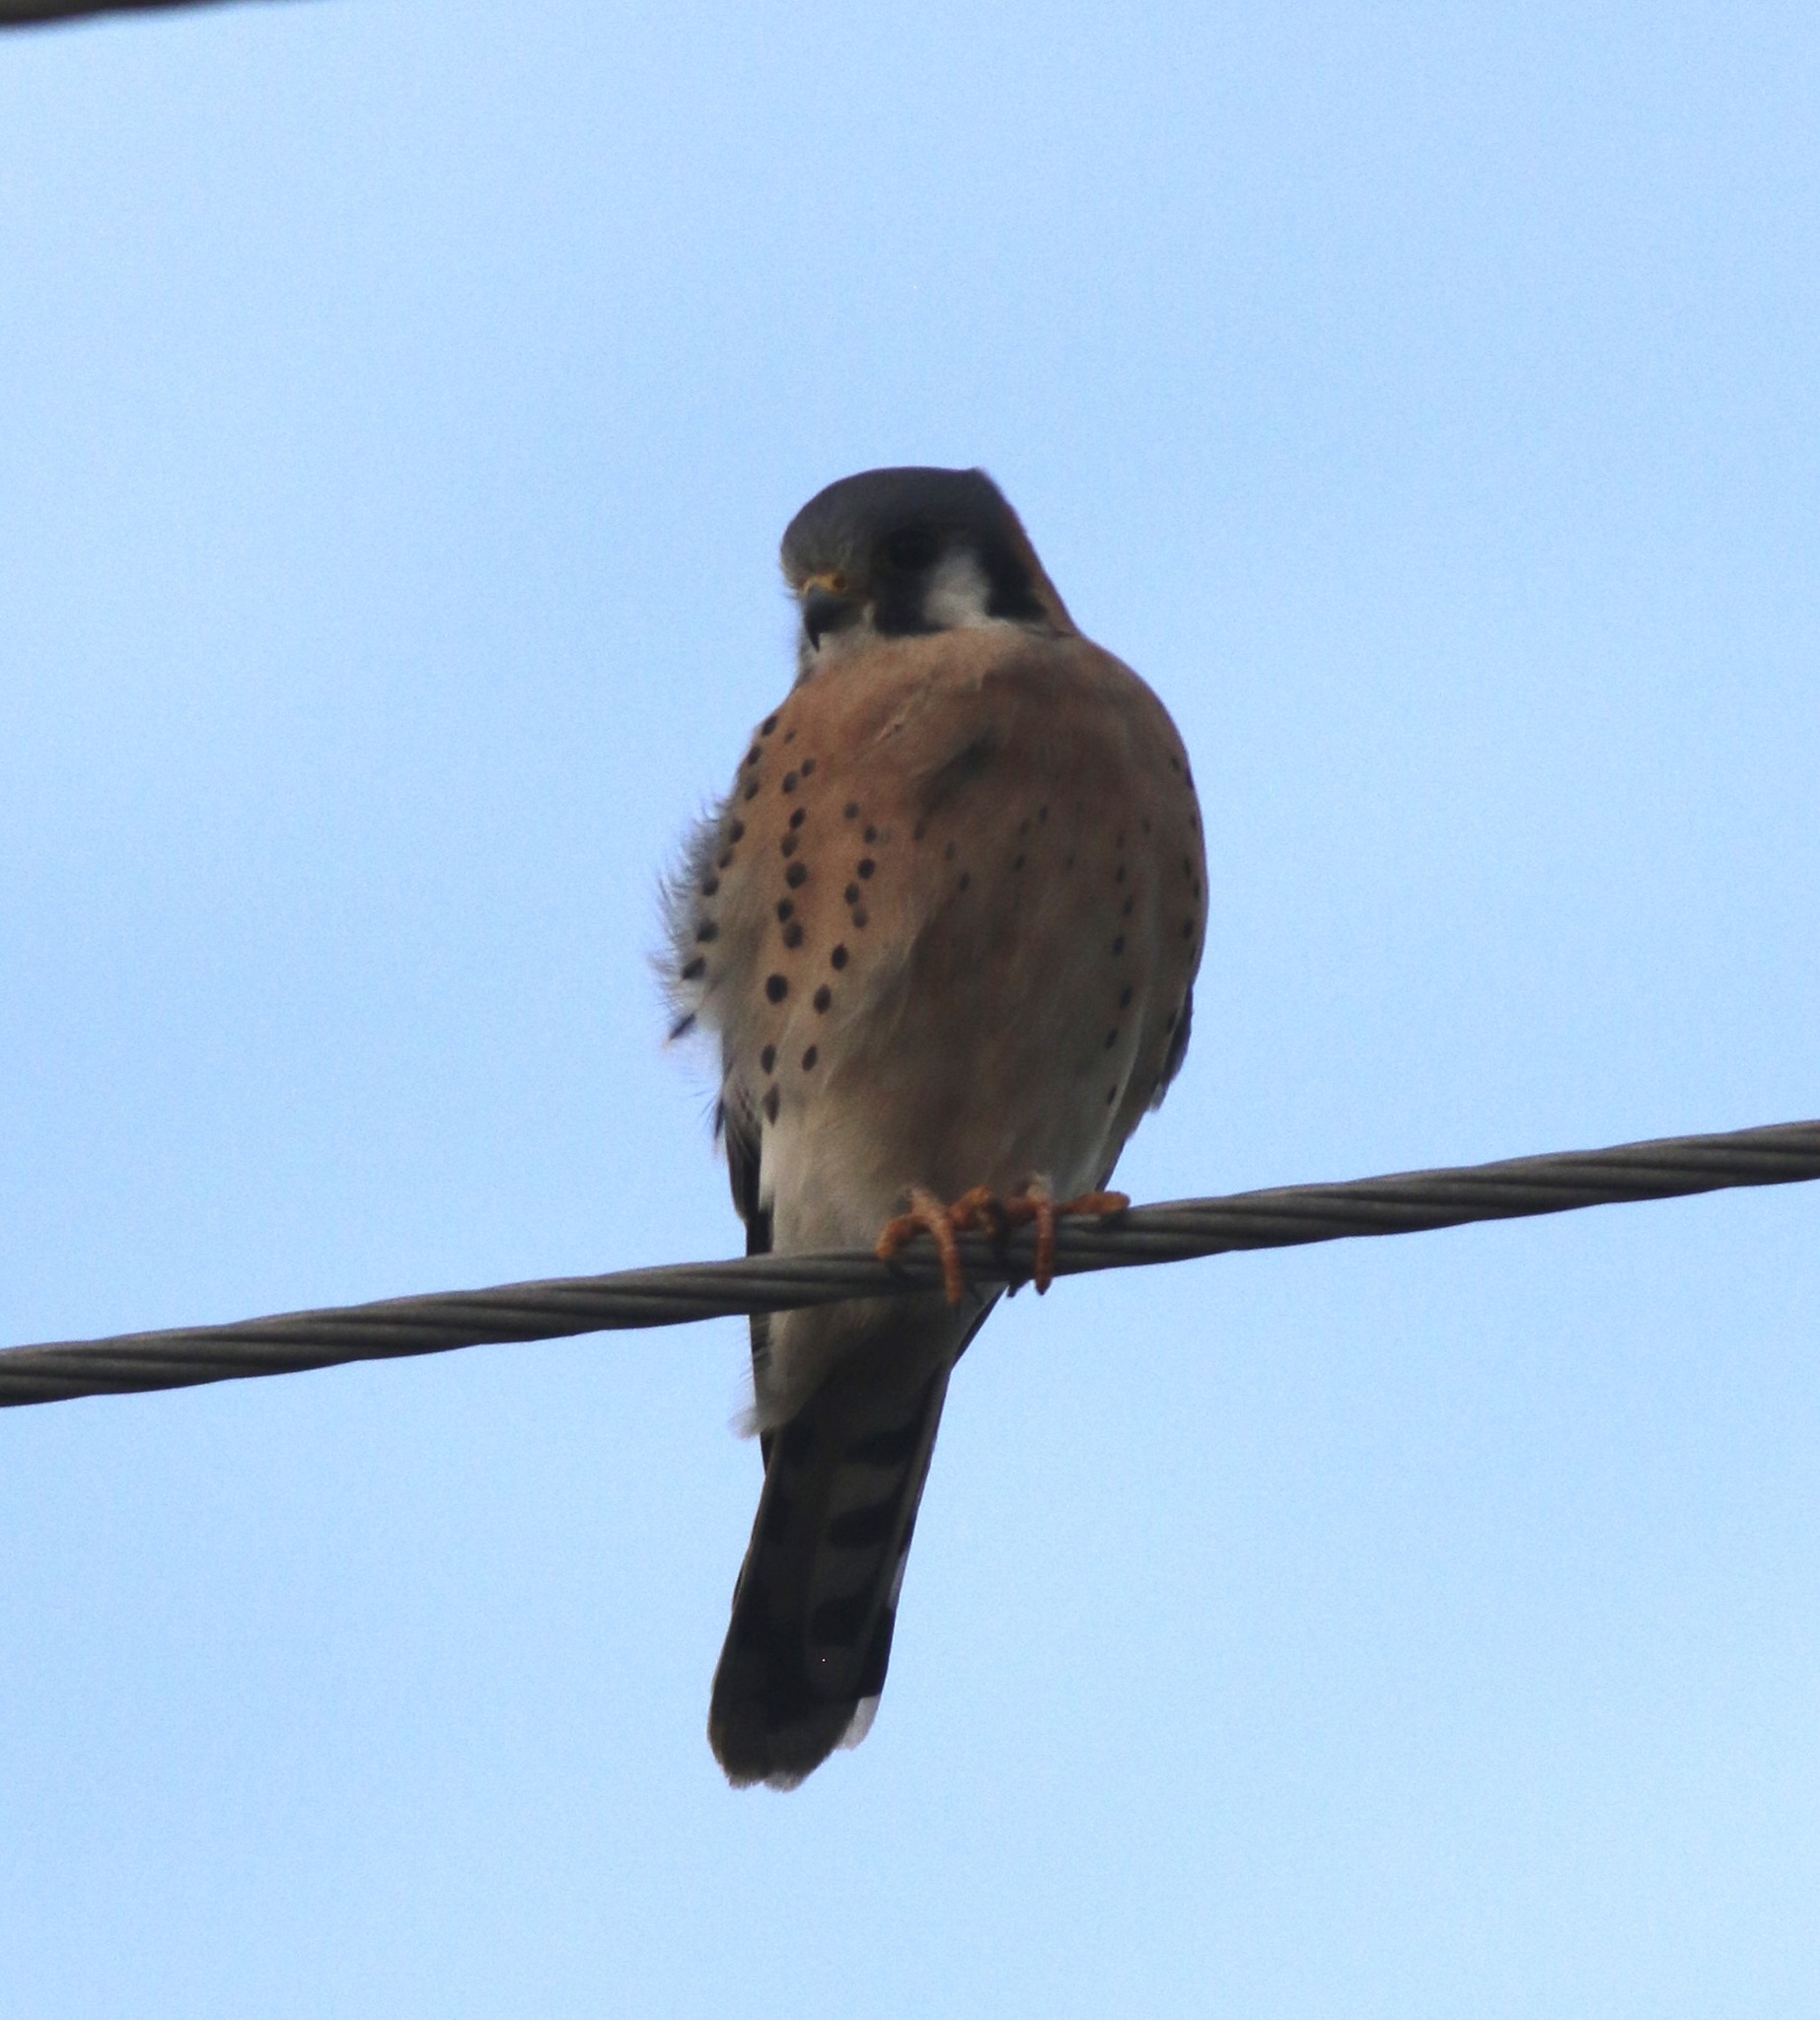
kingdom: Animalia
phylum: Chordata
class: Aves
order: Falconiformes
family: Falconidae
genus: Falco
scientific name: Falco sparverius
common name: American kestrel
